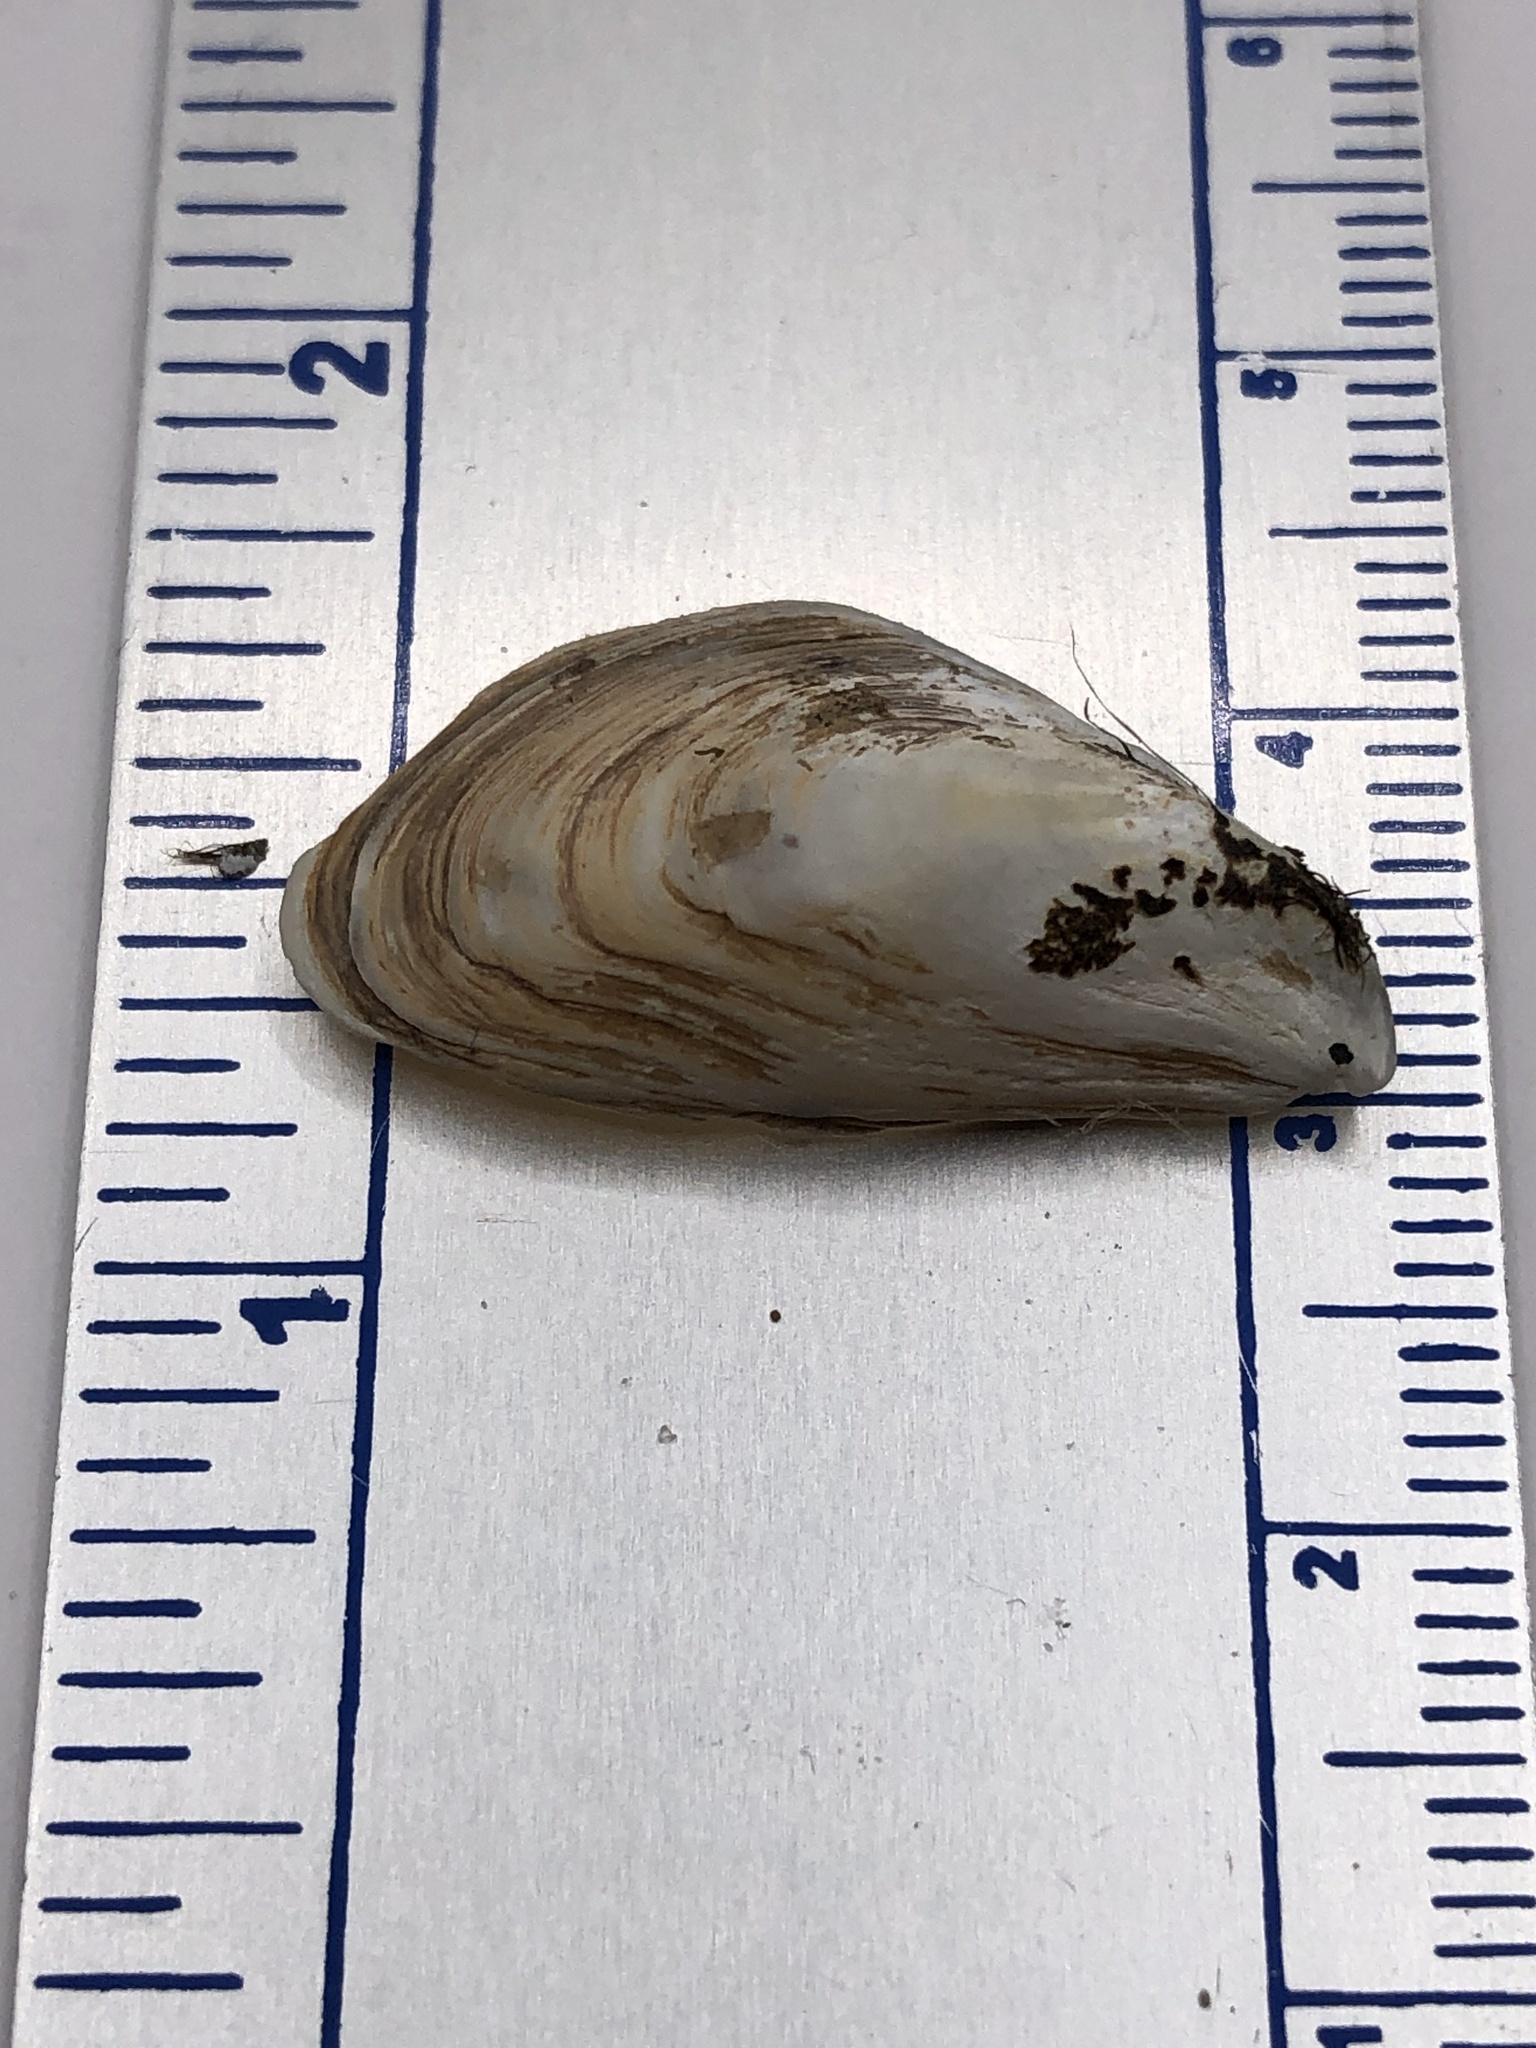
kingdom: Animalia
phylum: Mollusca
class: Bivalvia
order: Myida
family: Dreissenidae
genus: Dreissena
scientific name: Dreissena bugensis
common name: Quagga mussel
